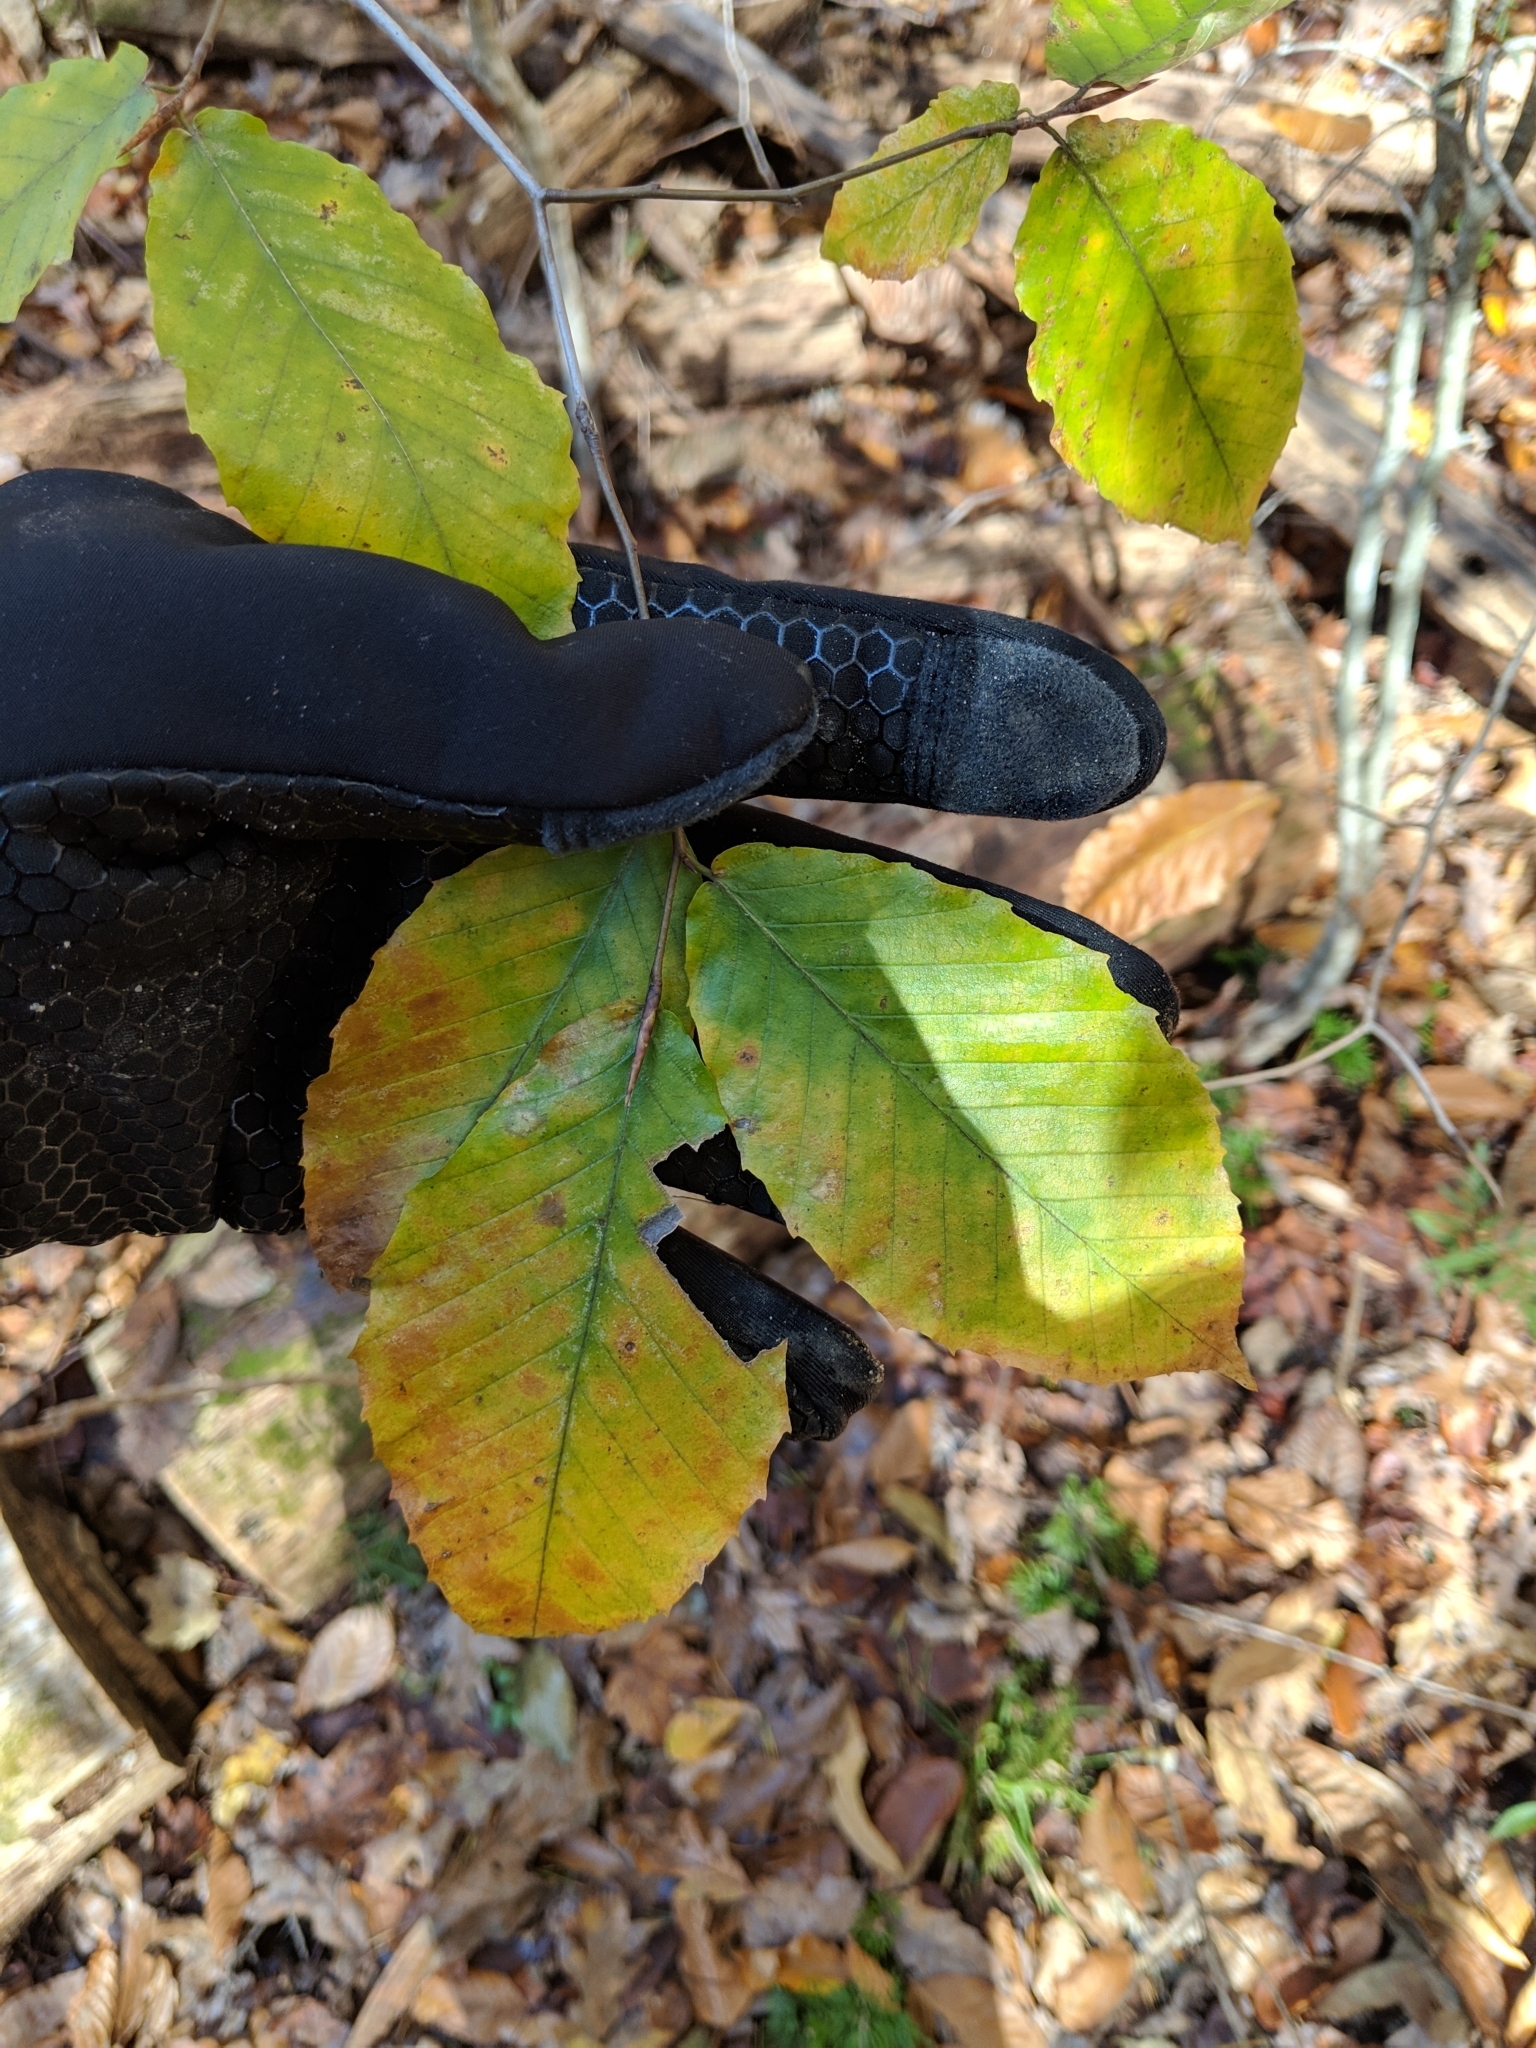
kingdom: Plantae
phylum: Tracheophyta
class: Magnoliopsida
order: Fagales
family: Fagaceae
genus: Fagus
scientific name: Fagus grandifolia
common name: American beech
